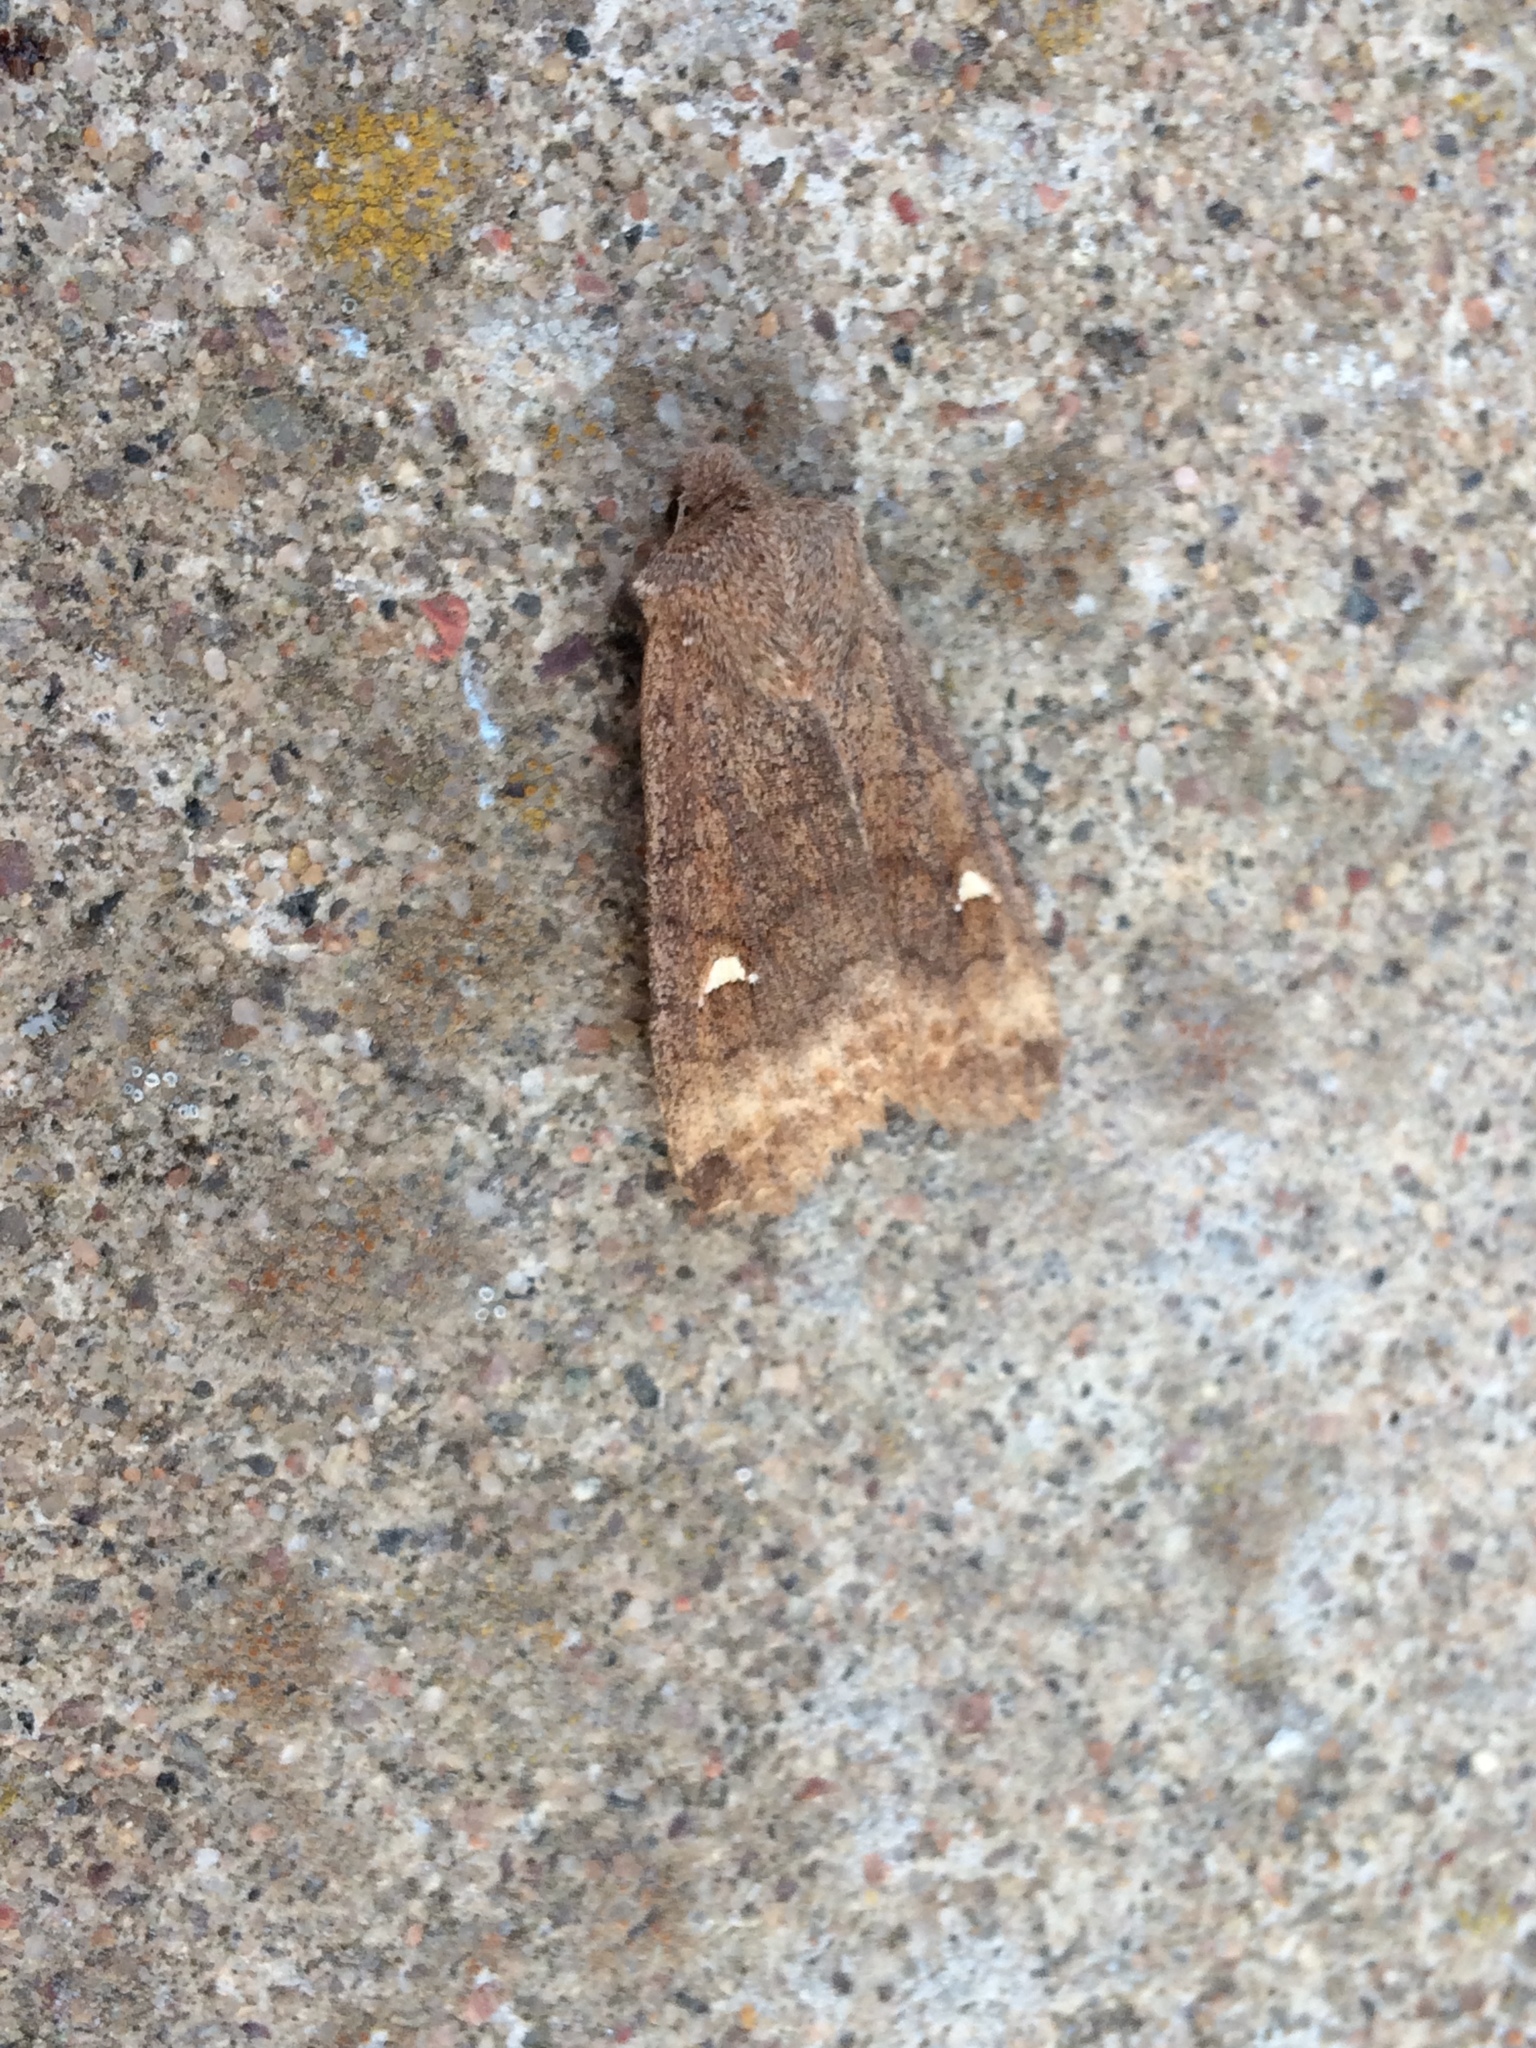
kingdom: Animalia
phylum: Arthropoda
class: Insecta
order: Lepidoptera
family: Noctuidae
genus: Eupsilia
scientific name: Eupsilia transversa
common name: Satellite
